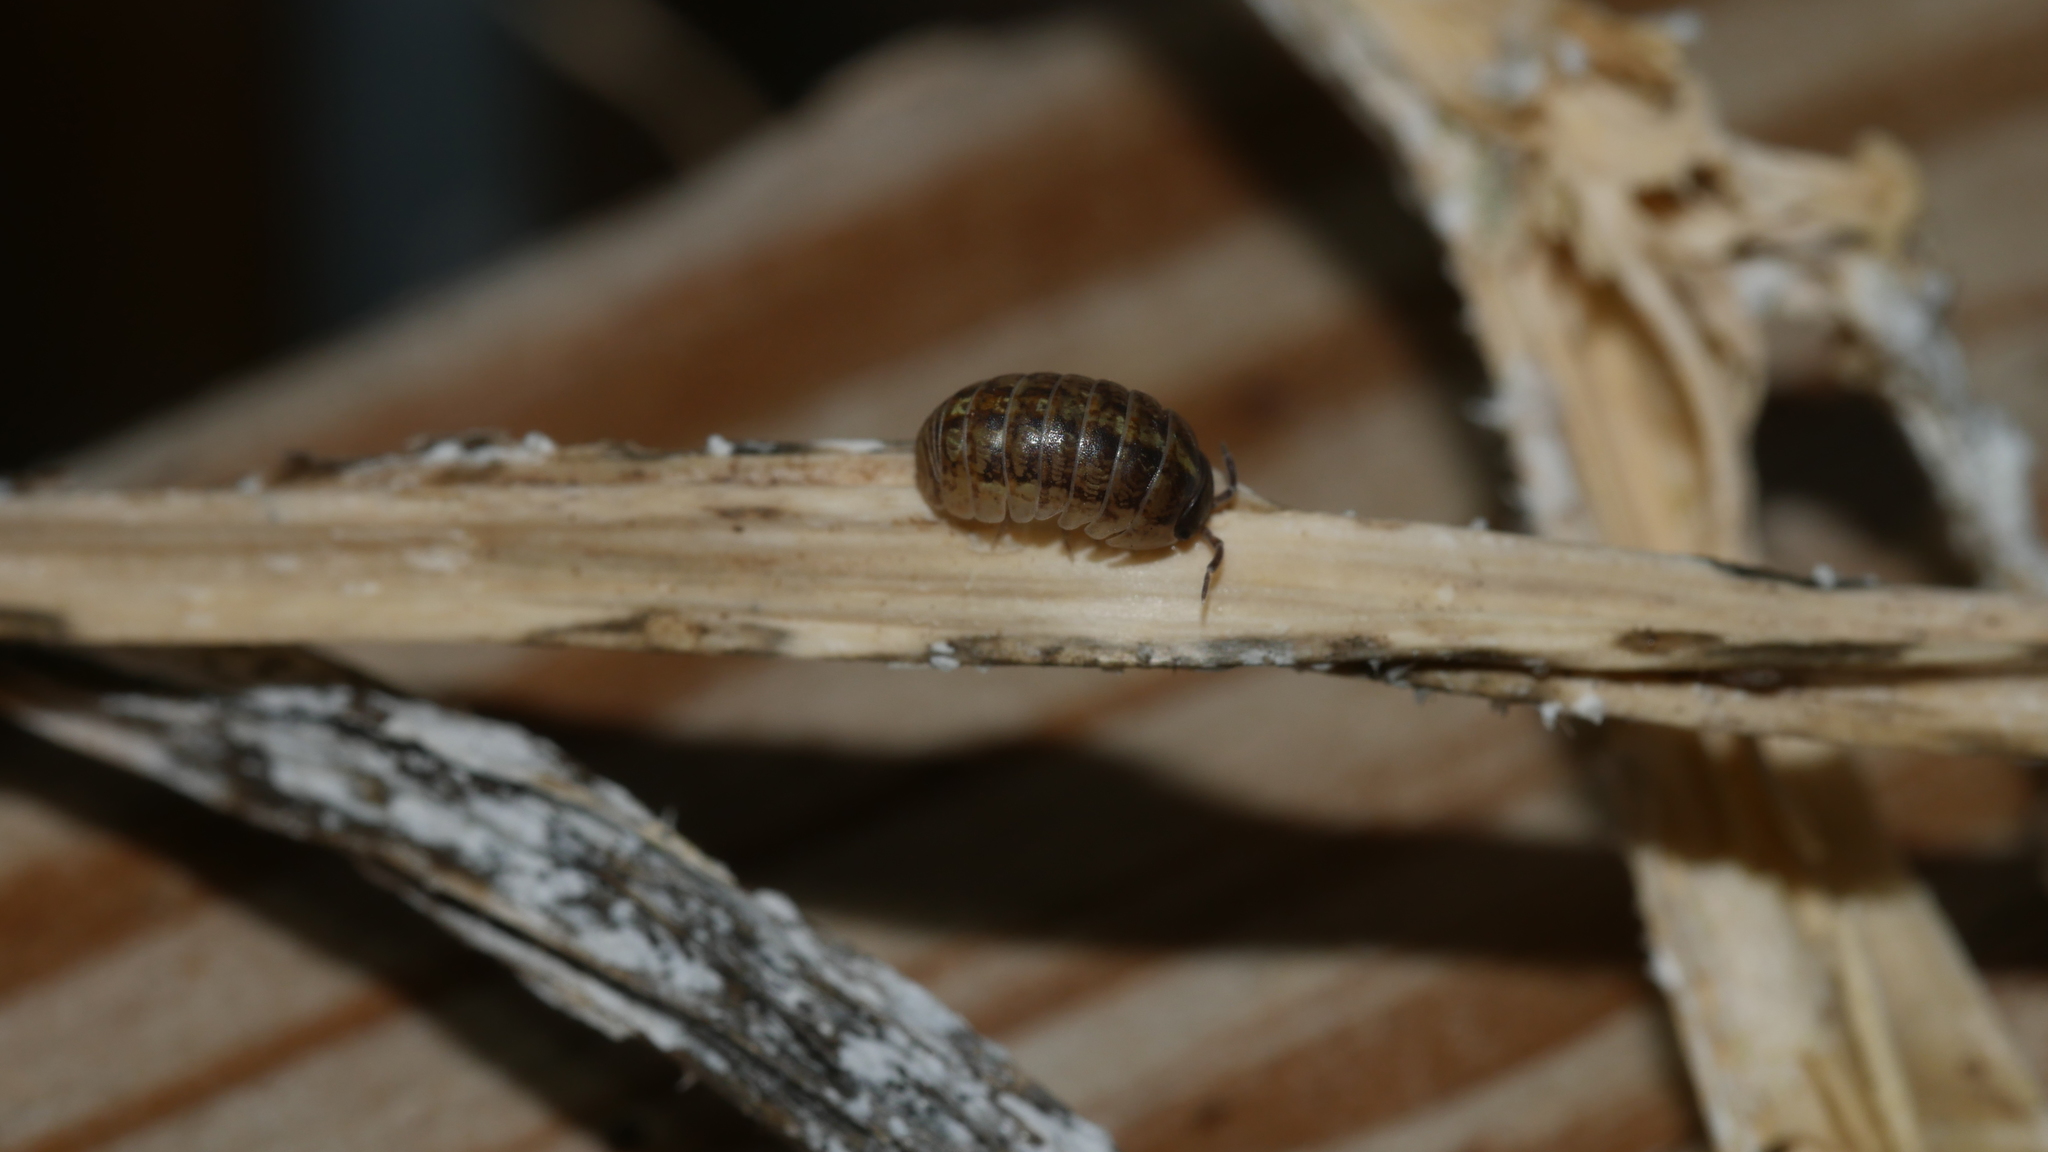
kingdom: Animalia
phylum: Arthropoda
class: Malacostraca
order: Isopoda
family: Armadillidiidae
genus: Armadillidium
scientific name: Armadillidium vulgare
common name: Common pill woodlouse
